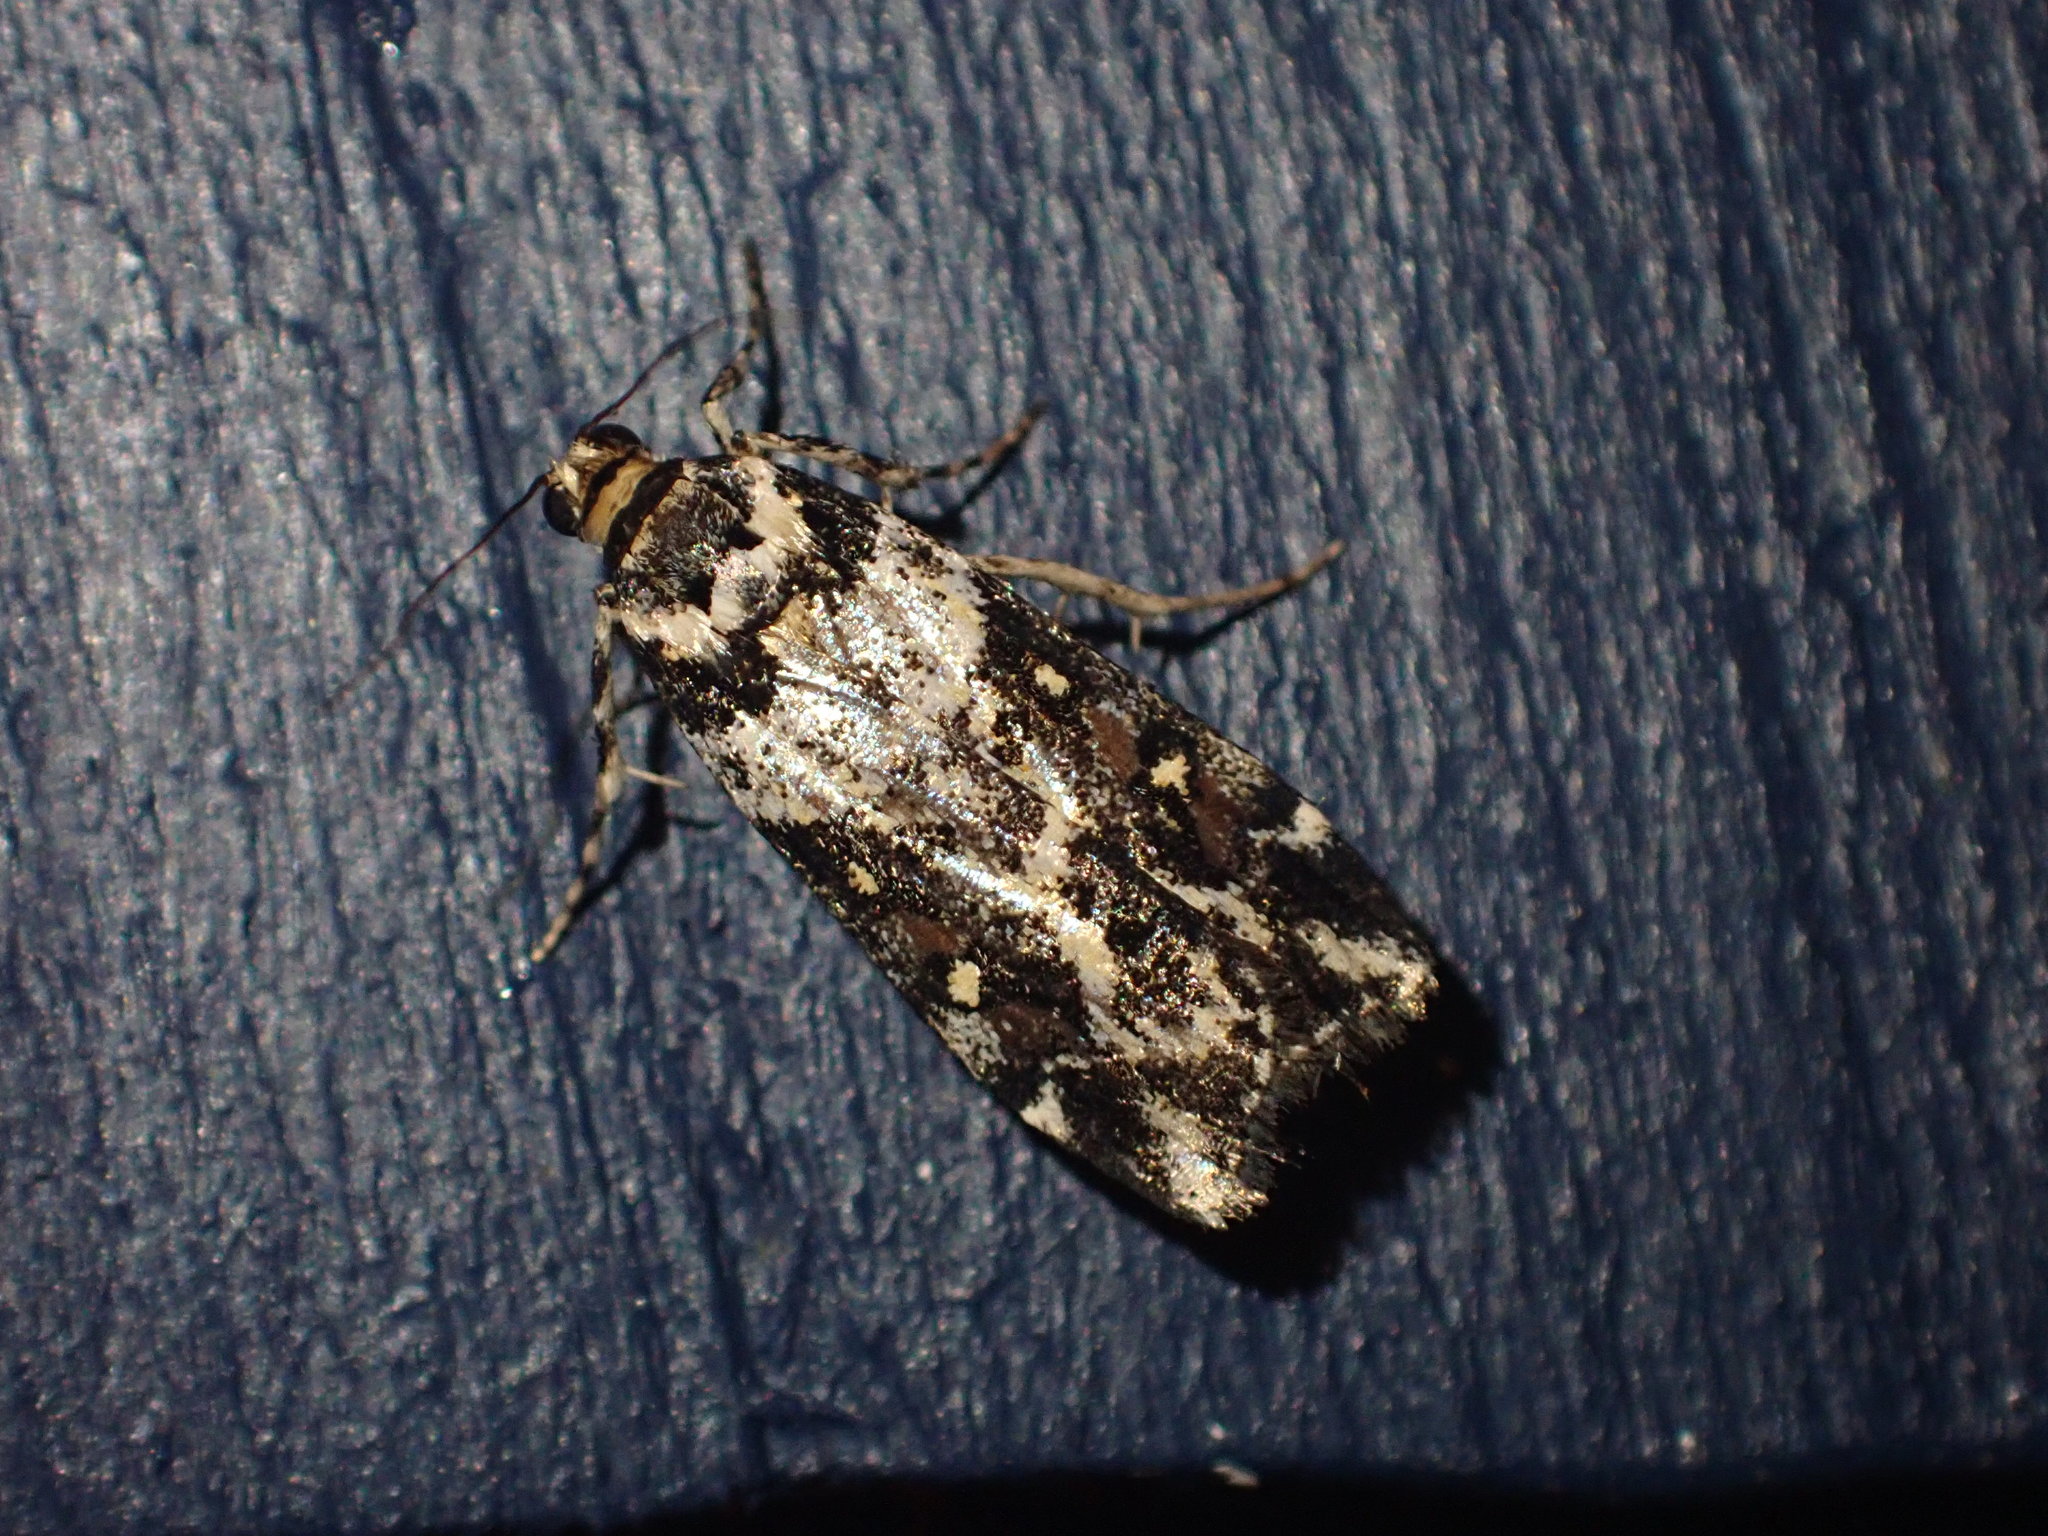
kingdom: Animalia
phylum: Arthropoda
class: Insecta
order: Lepidoptera
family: Crambidae
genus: Eudonia
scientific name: Eudonia diphtheralis
